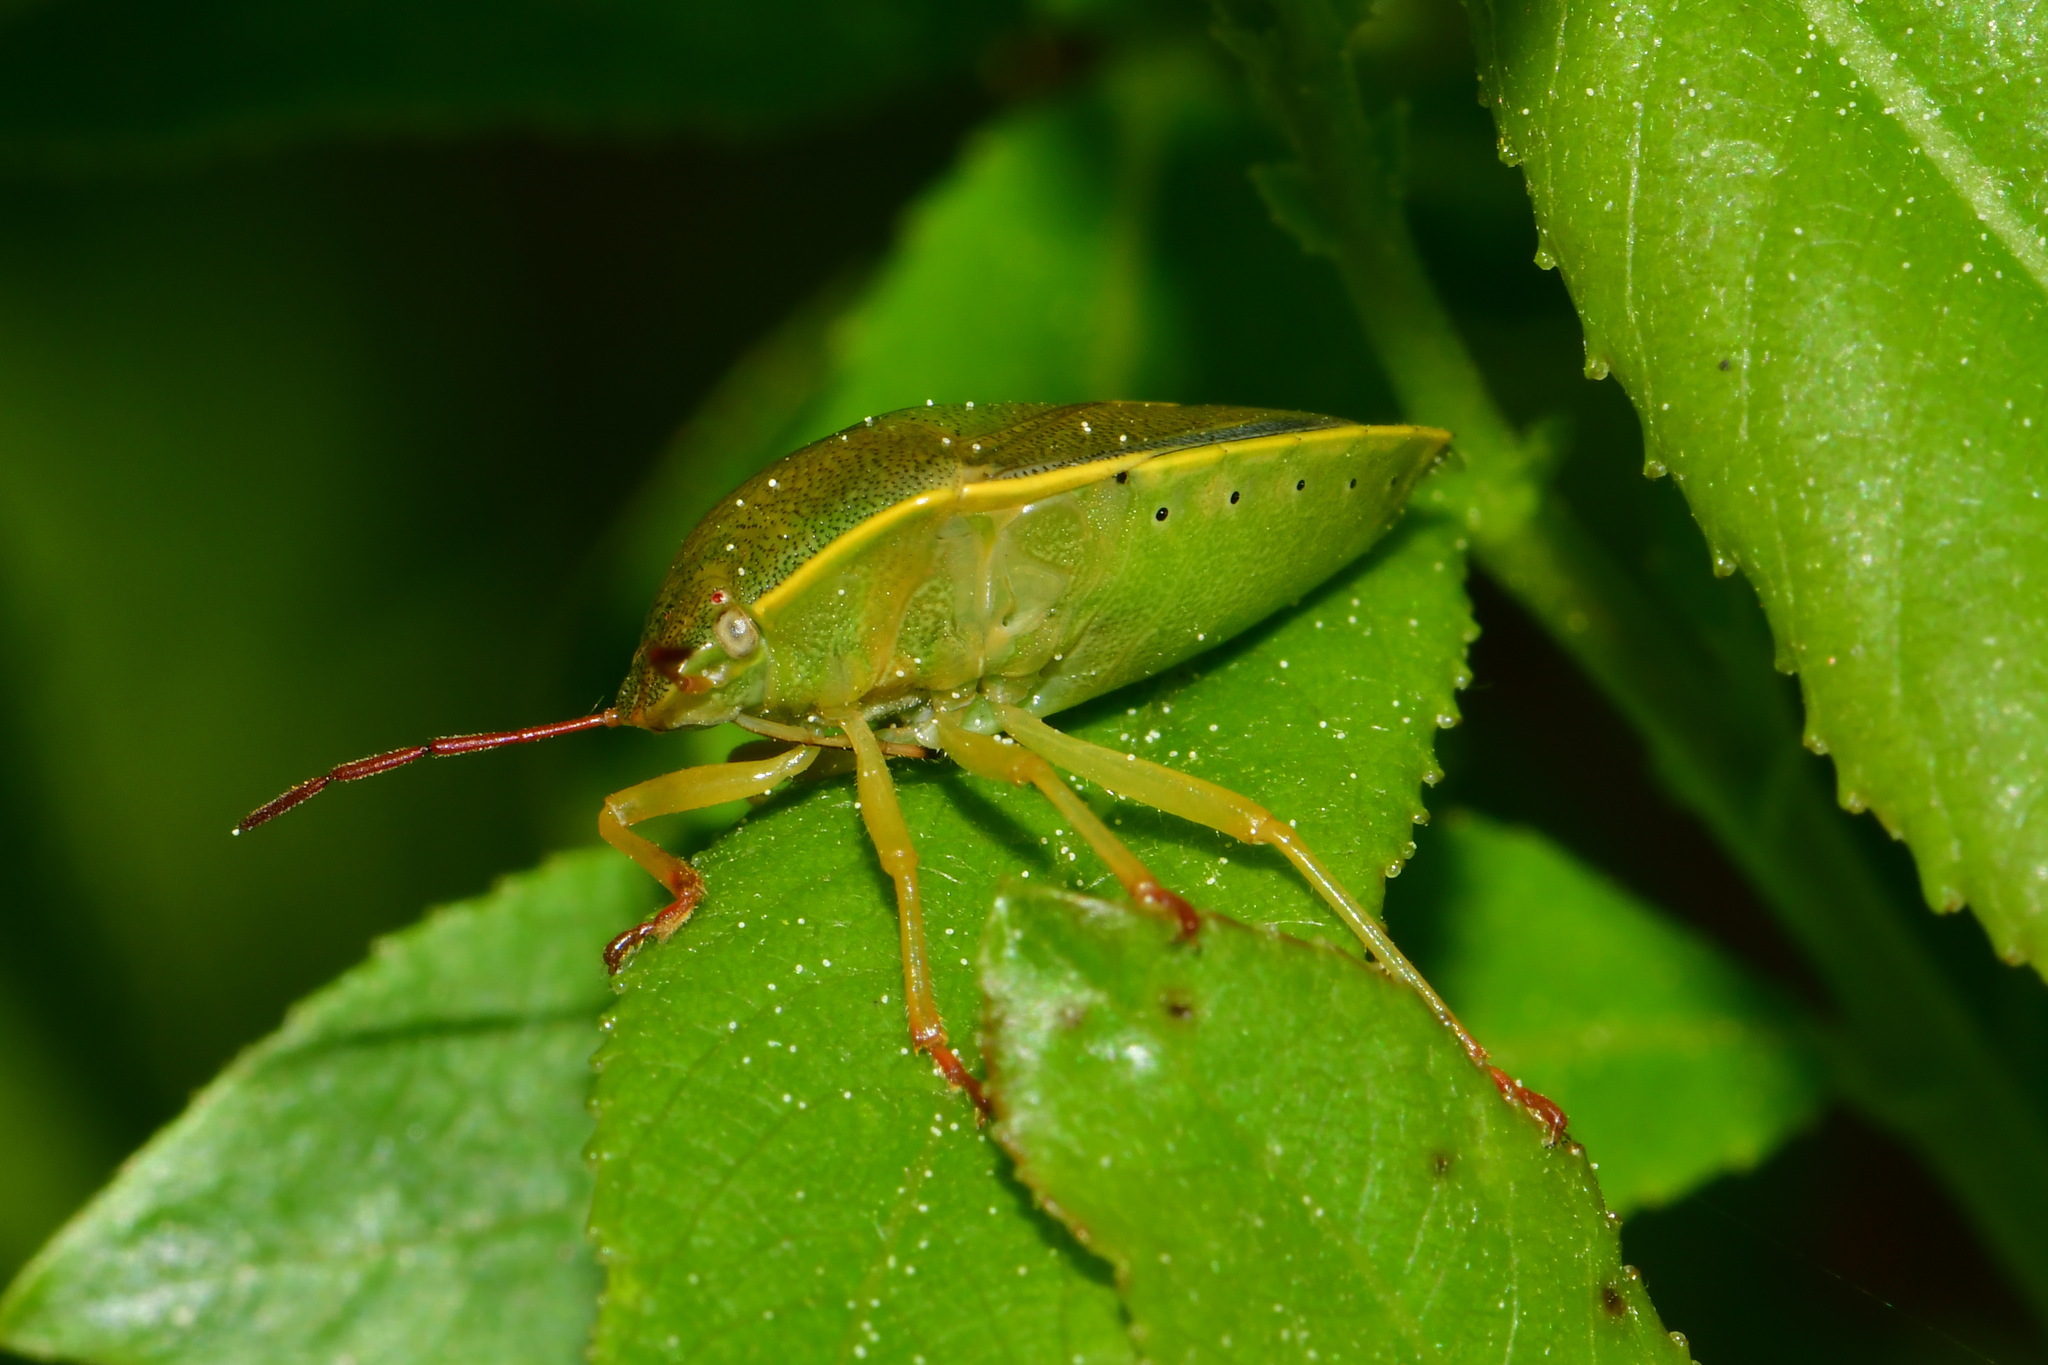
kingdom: Animalia
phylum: Arthropoda
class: Insecta
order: Hemiptera
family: Pentatomidae
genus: Piezodorus
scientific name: Piezodorus lituratus
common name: Stink bug
